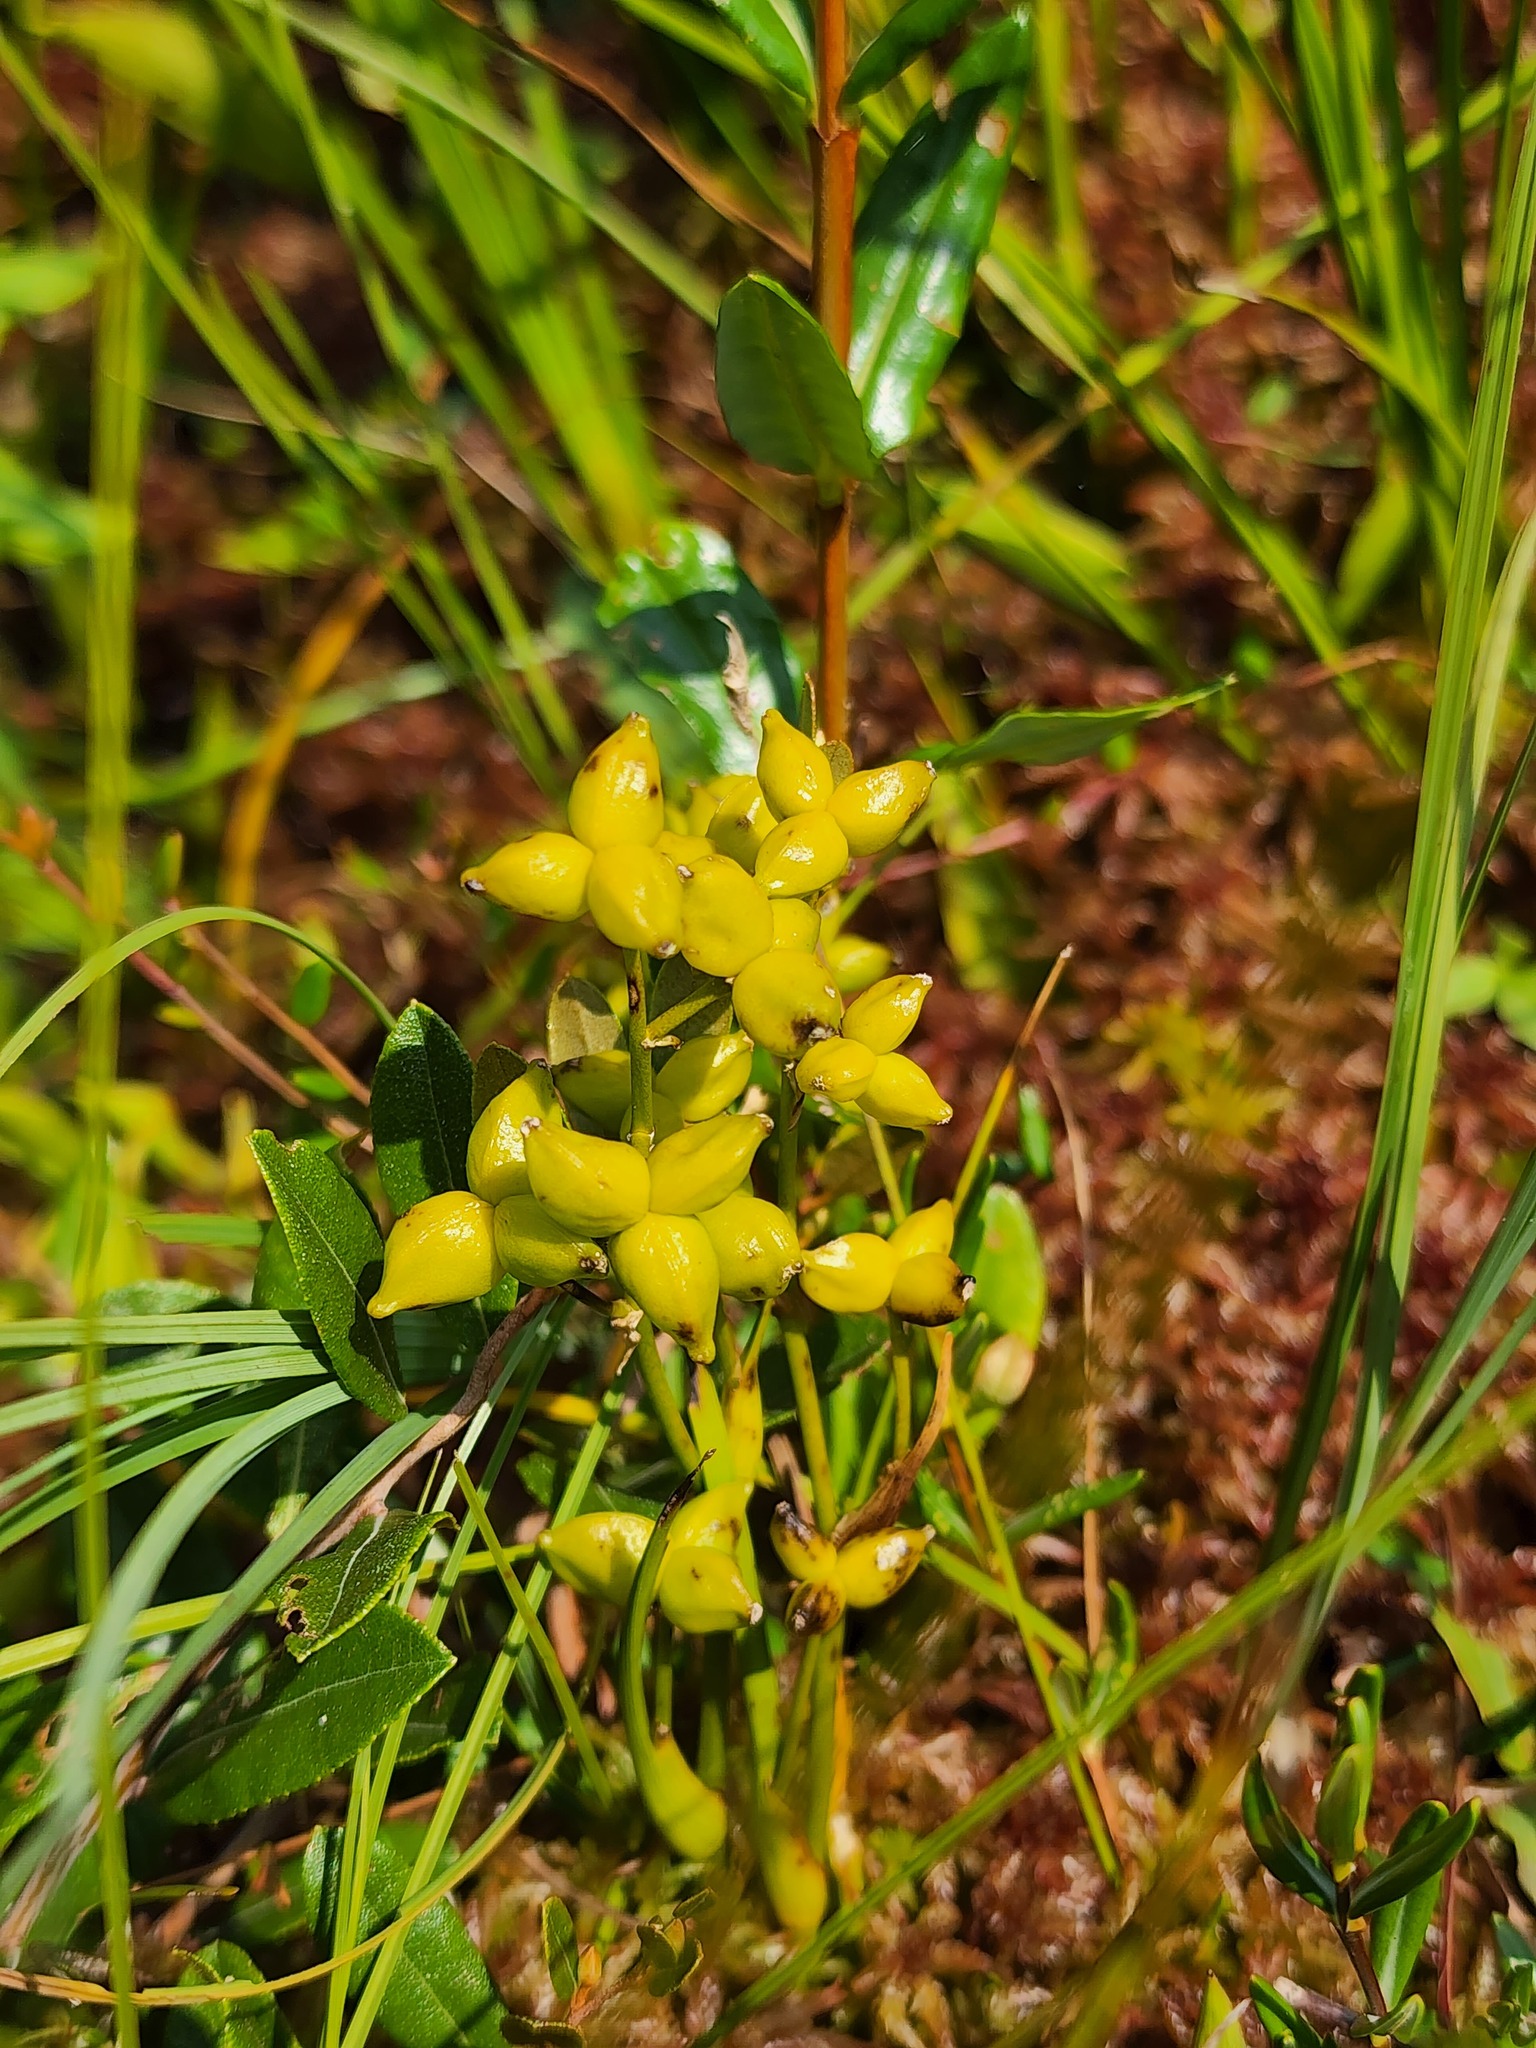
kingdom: Plantae
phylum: Tracheophyta
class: Liliopsida
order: Alismatales
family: Scheuchzeriaceae
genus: Scheuchzeria
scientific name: Scheuchzeria palustris
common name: Rannoch-rush
